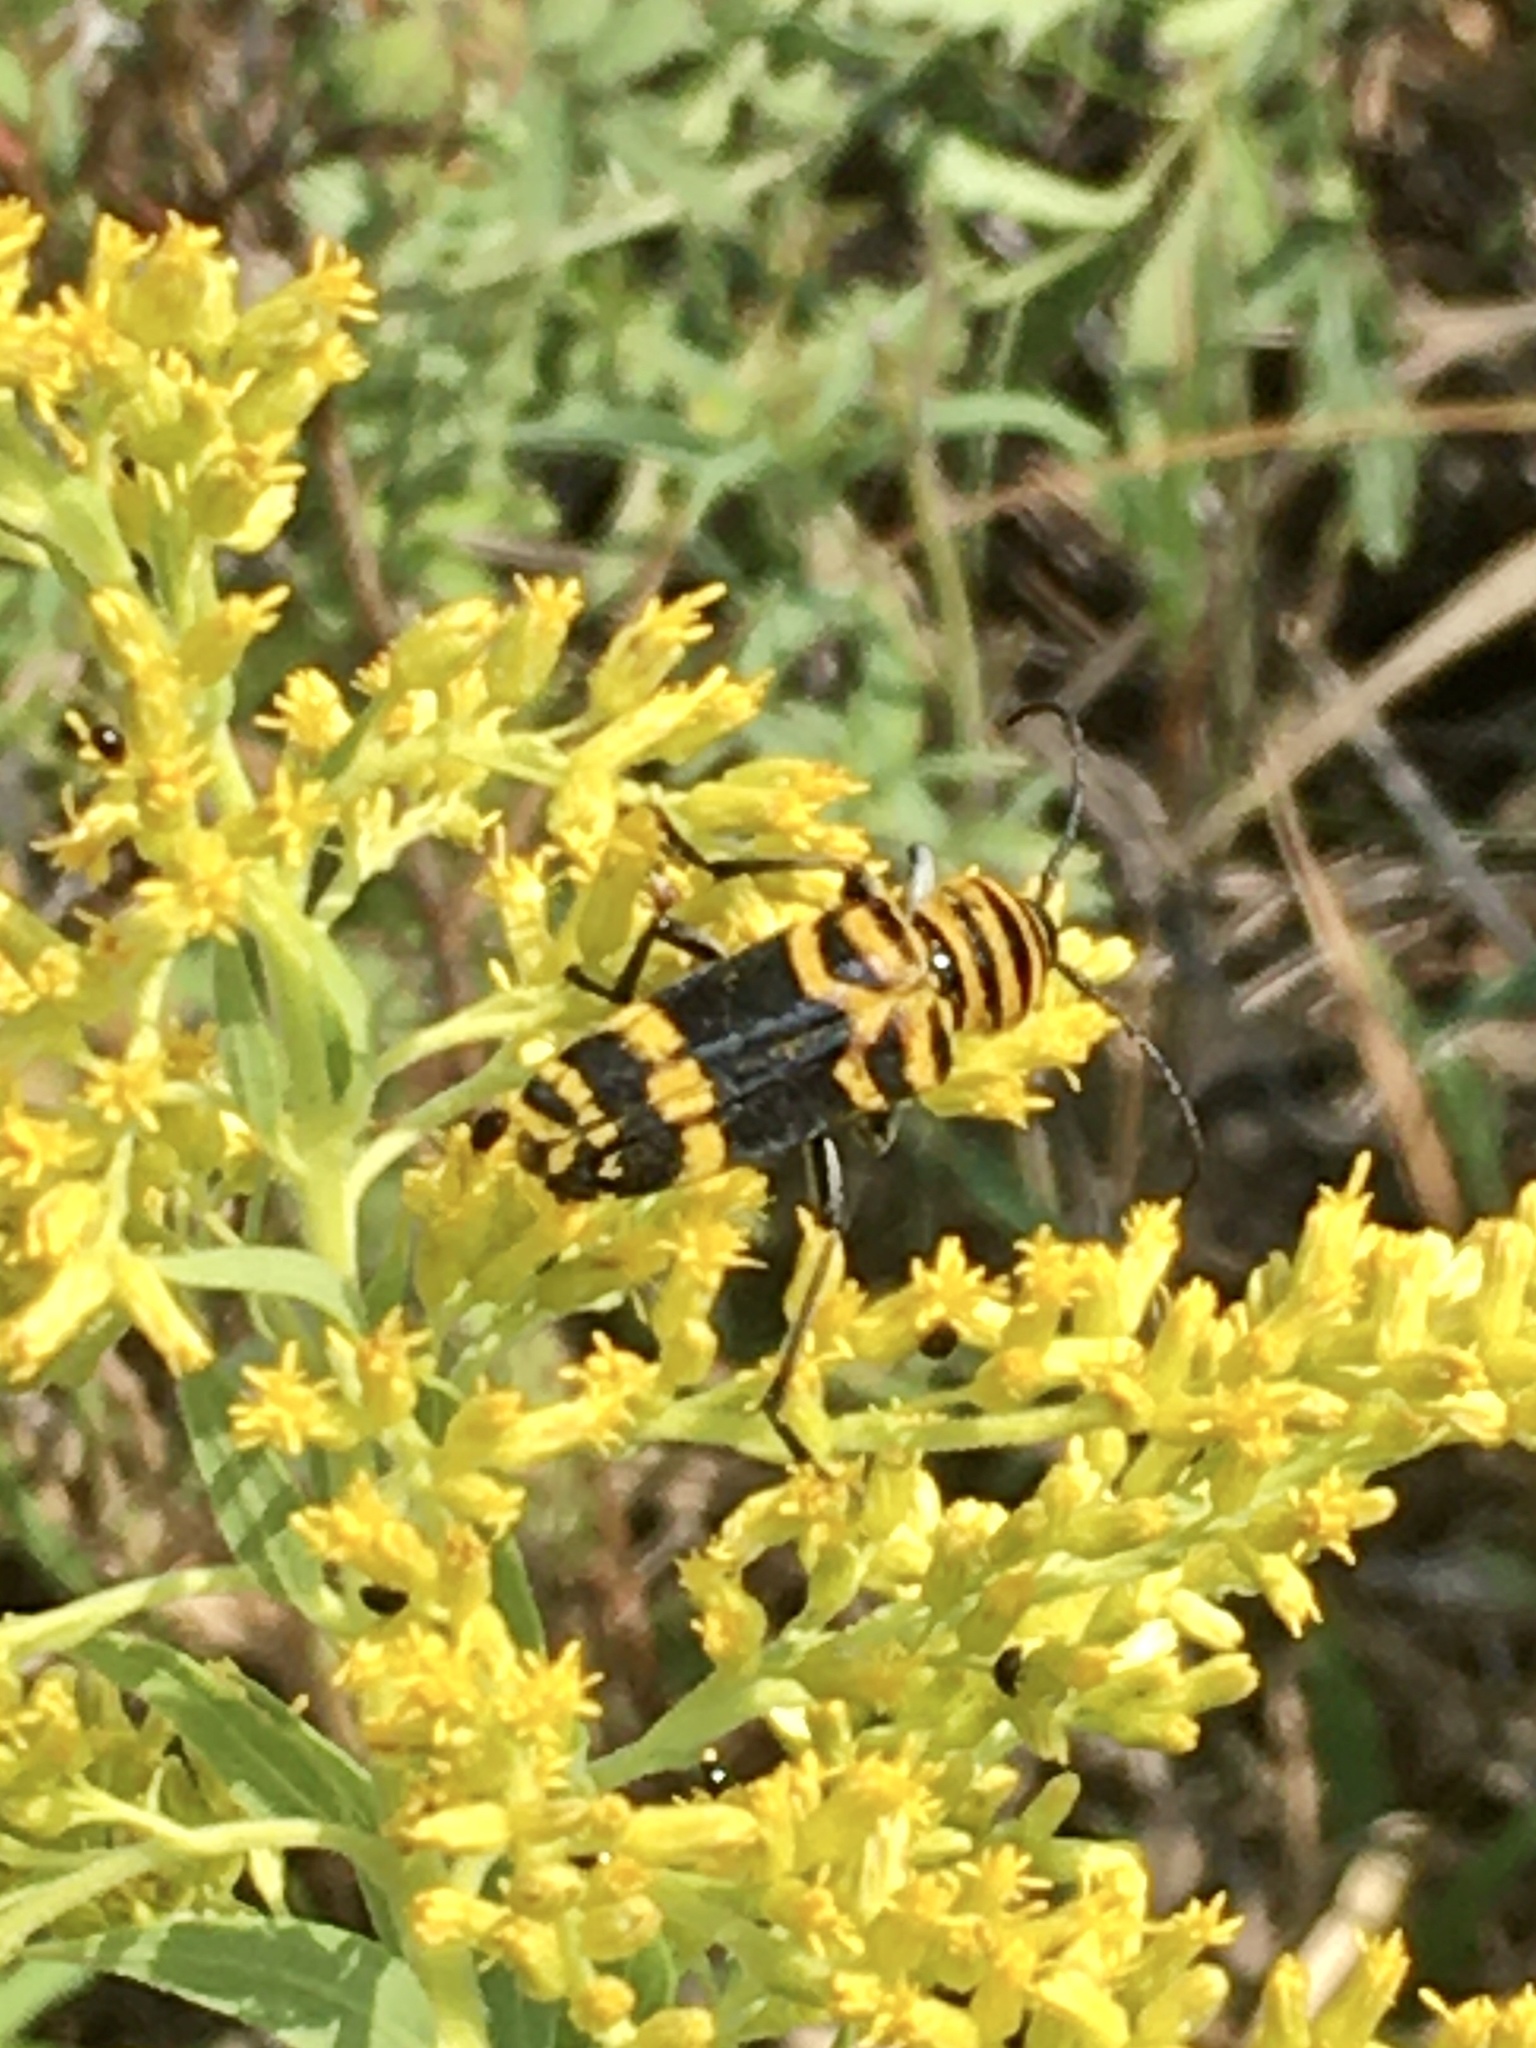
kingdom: Animalia
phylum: Arthropoda
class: Insecta
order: Coleoptera
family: Cerambycidae
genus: Megacyllene
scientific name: Megacyllene decora
